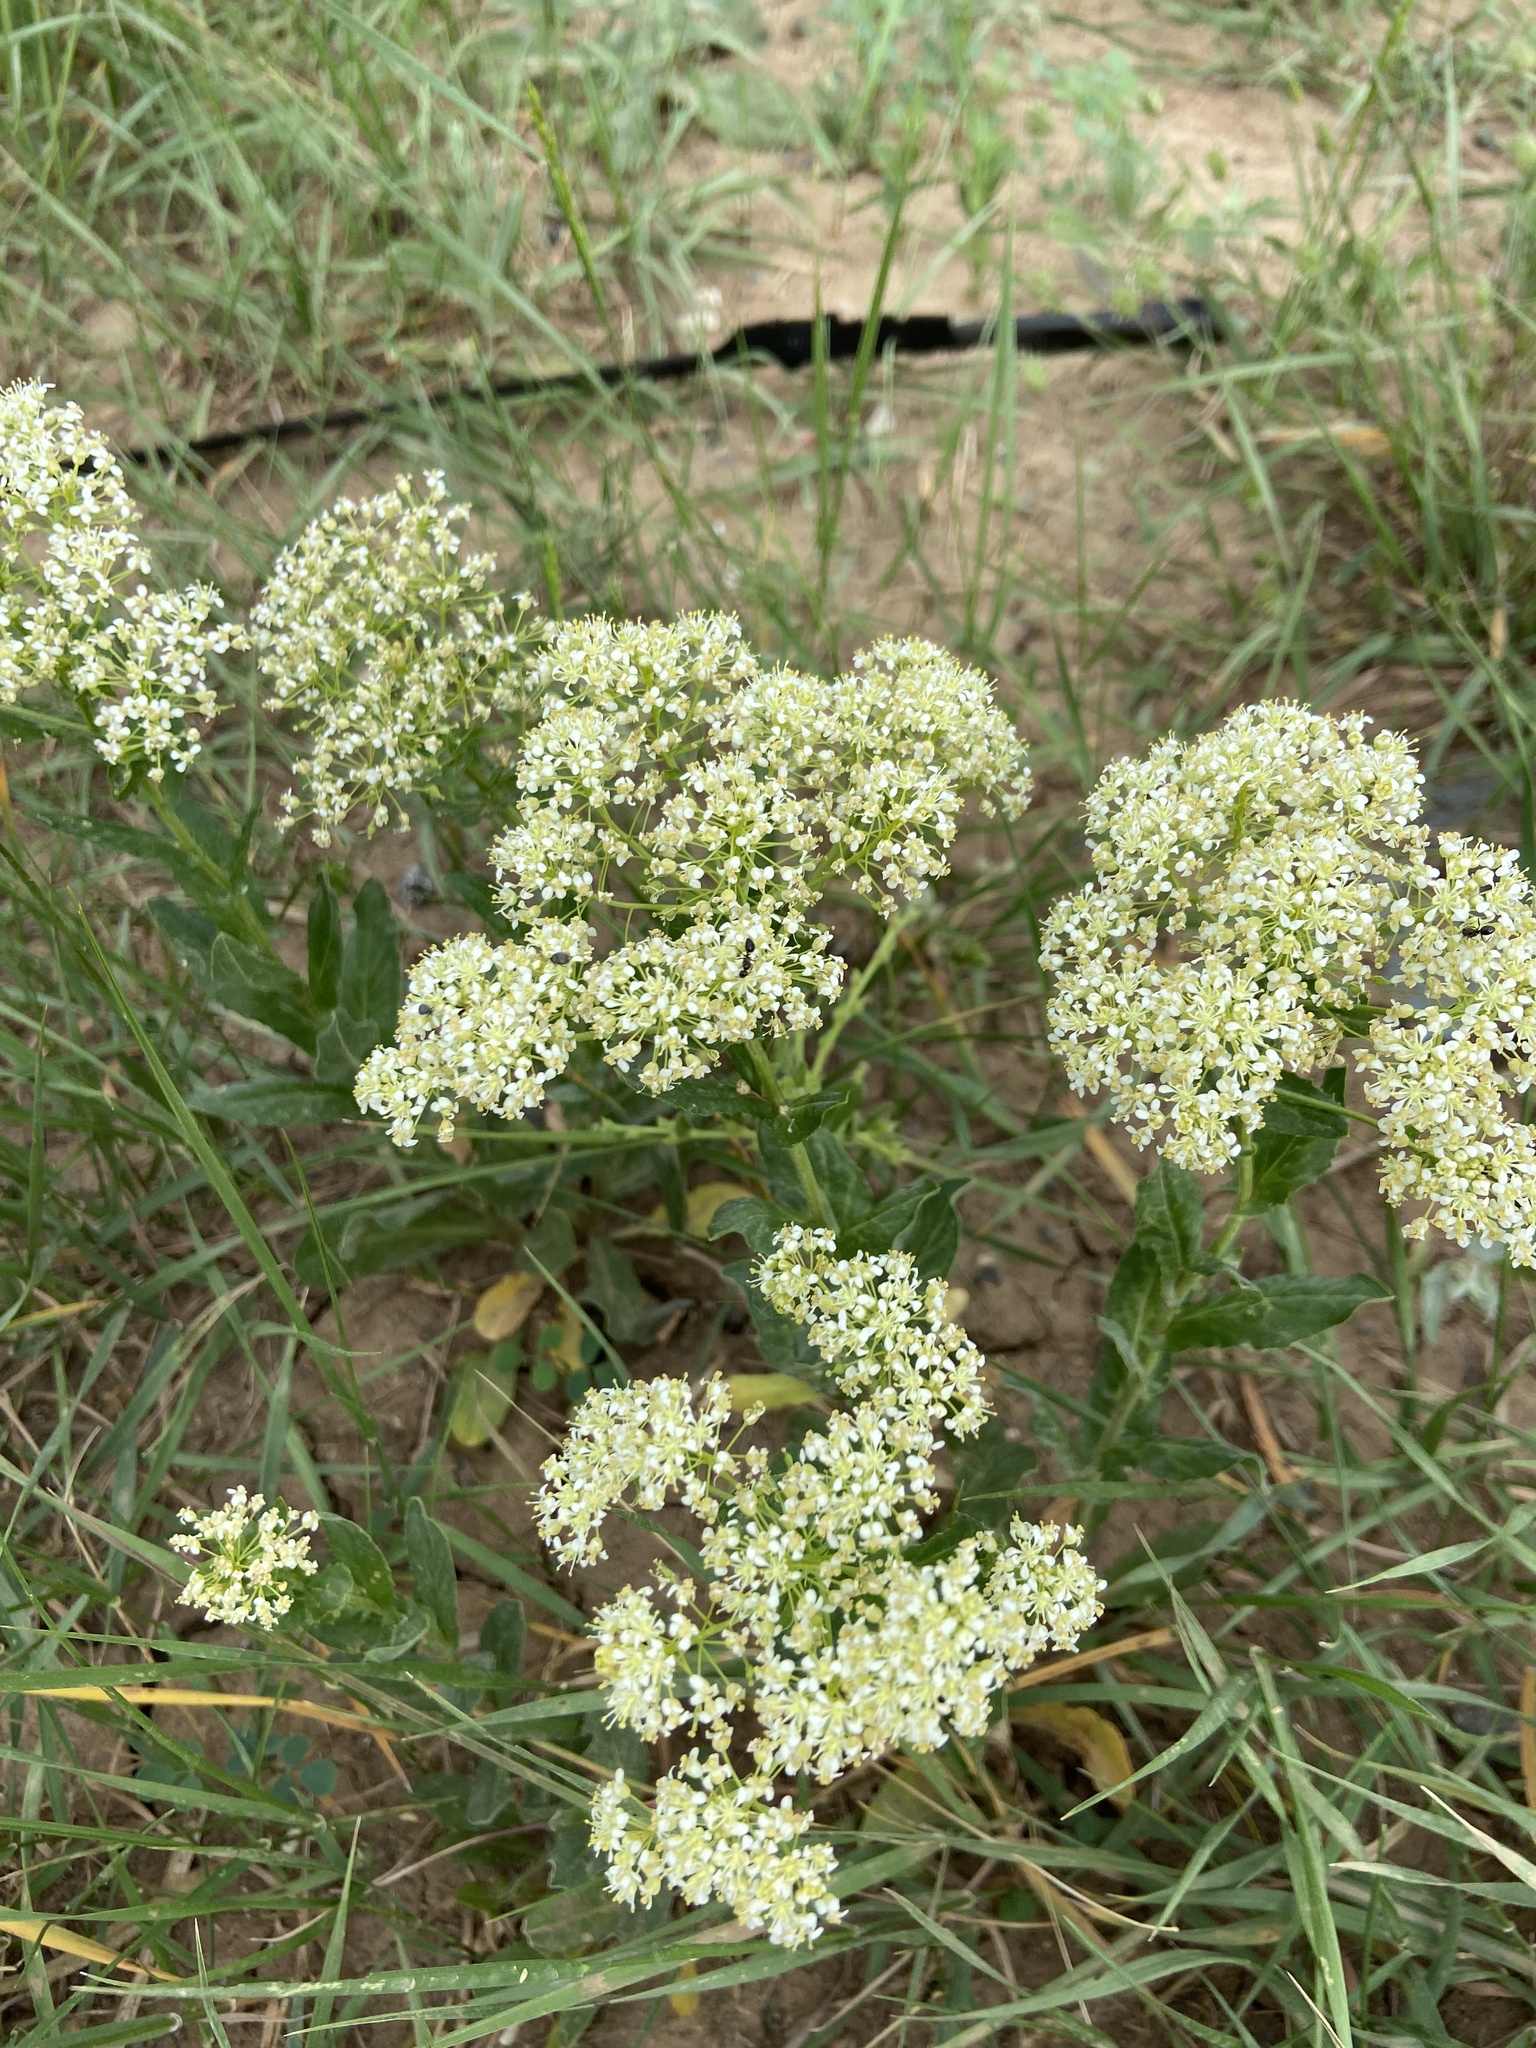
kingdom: Plantae
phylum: Tracheophyta
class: Magnoliopsida
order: Brassicales
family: Brassicaceae
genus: Lepidium
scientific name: Lepidium draba
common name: Hoary cress
